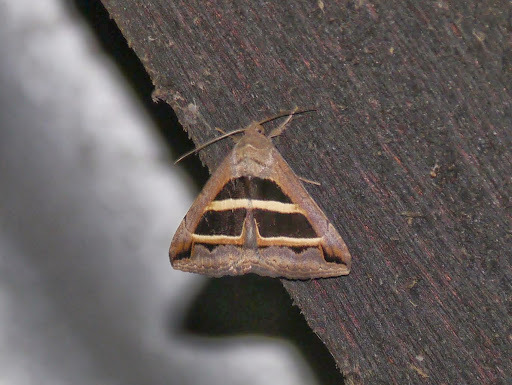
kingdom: Animalia
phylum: Arthropoda
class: Insecta
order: Lepidoptera
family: Erebidae
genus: Grammodes
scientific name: Grammodes bifasciata
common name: Parallel lines
